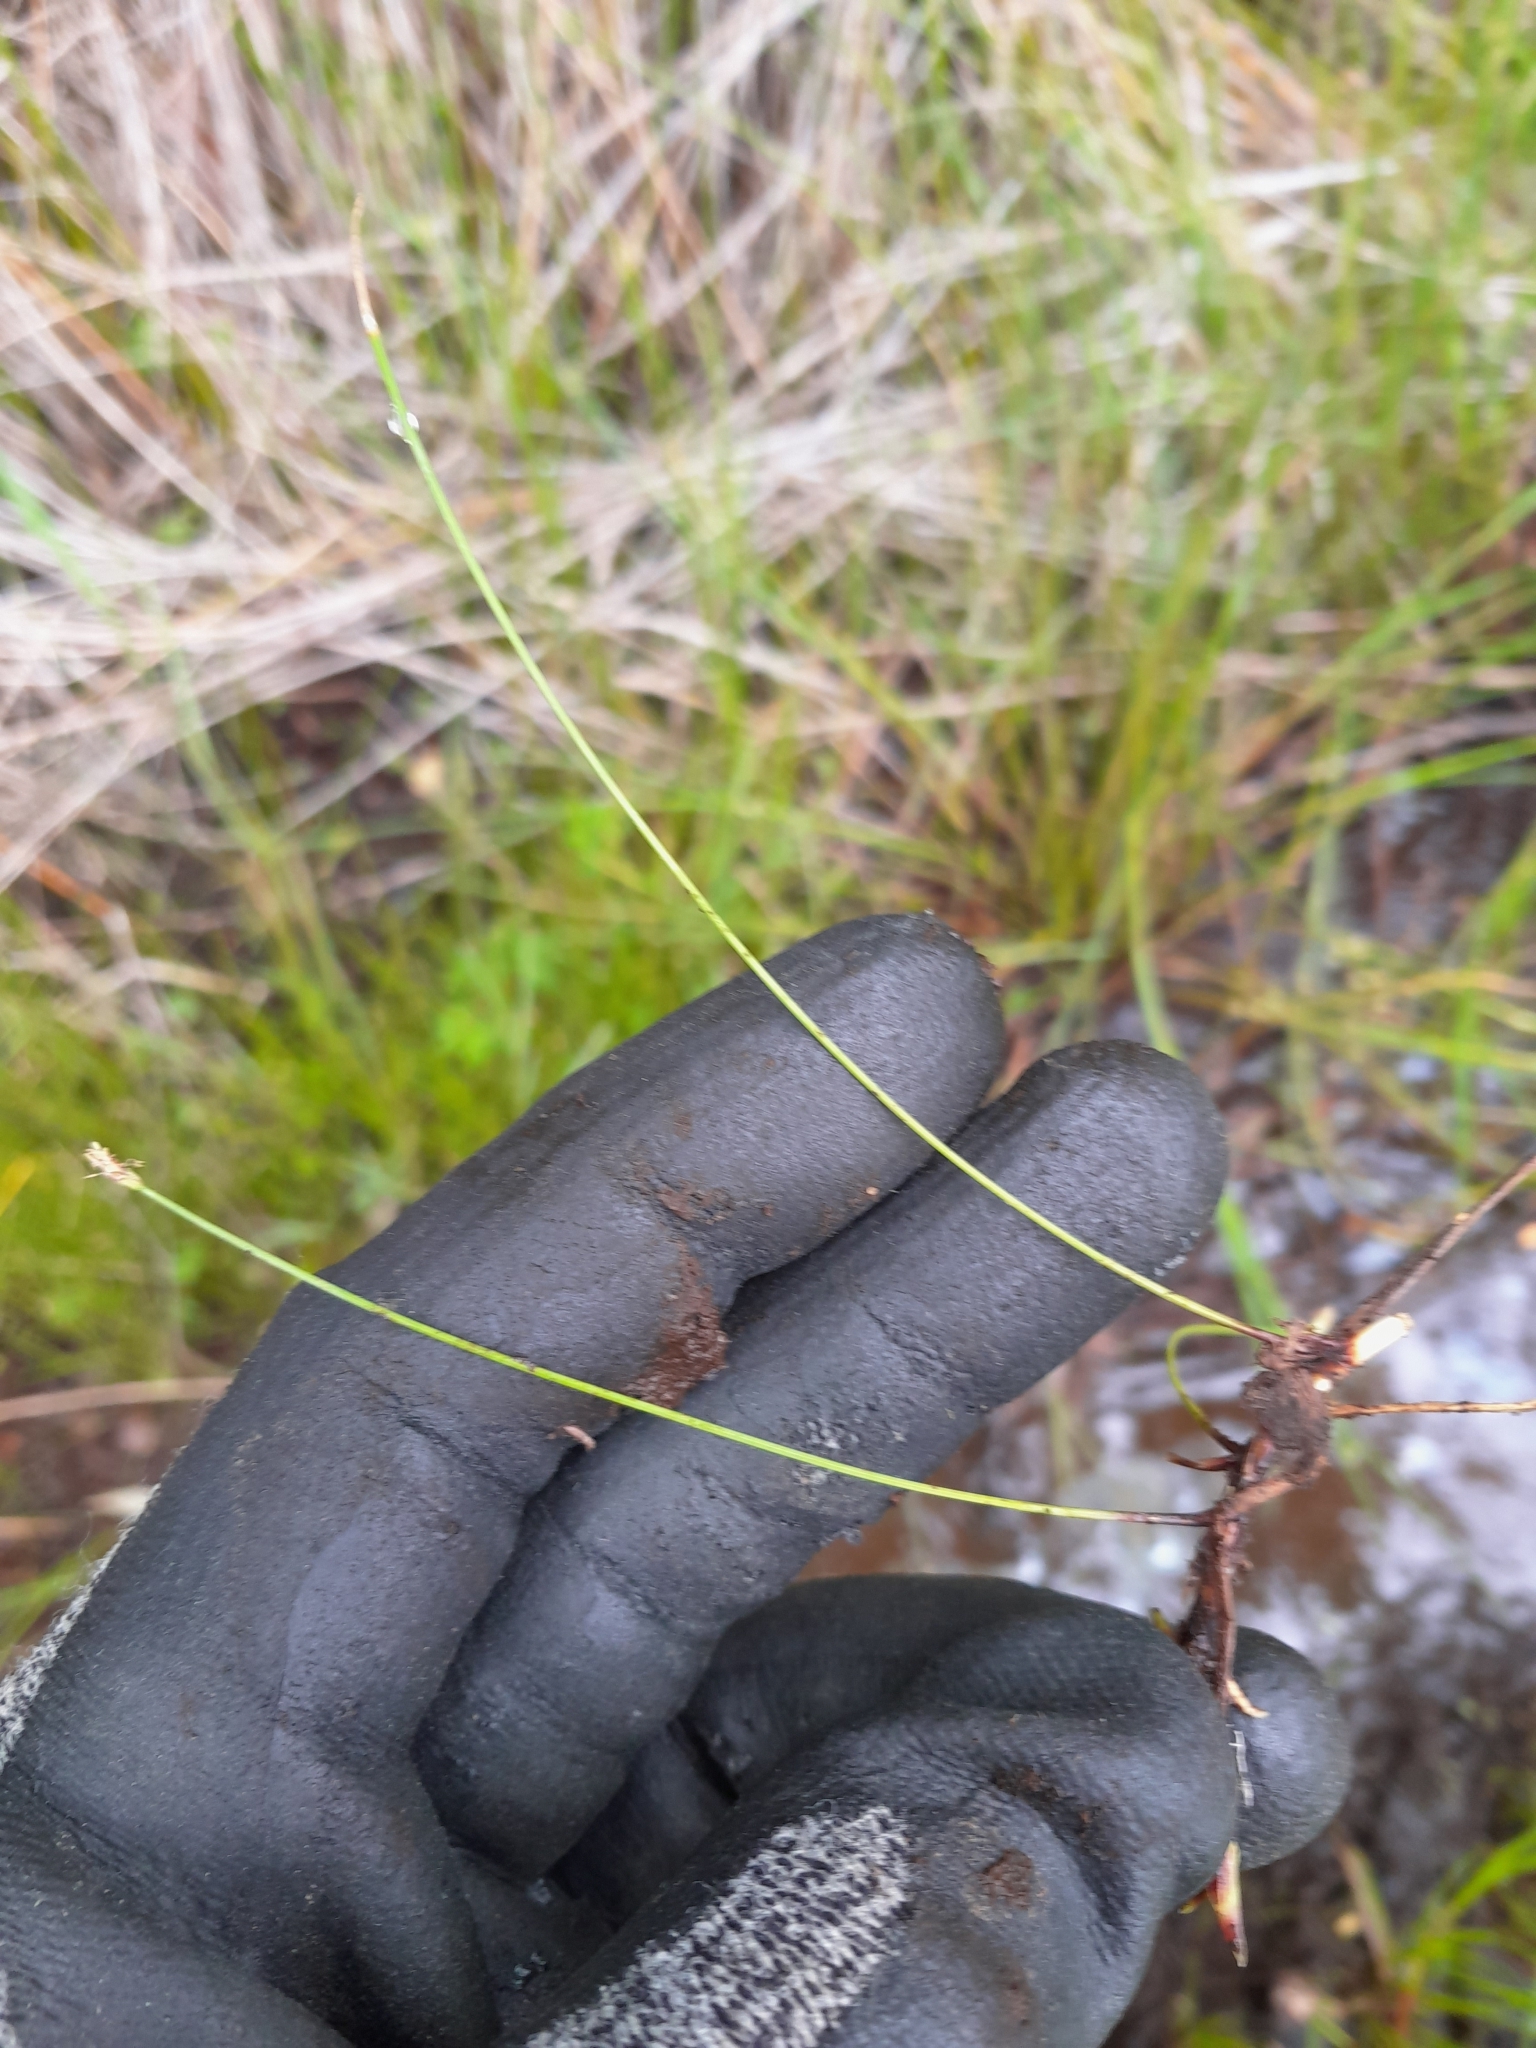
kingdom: Plantae
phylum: Tracheophyta
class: Liliopsida
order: Poales
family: Cyperaceae
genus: Eleocharis
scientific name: Eleocharis gracilis
